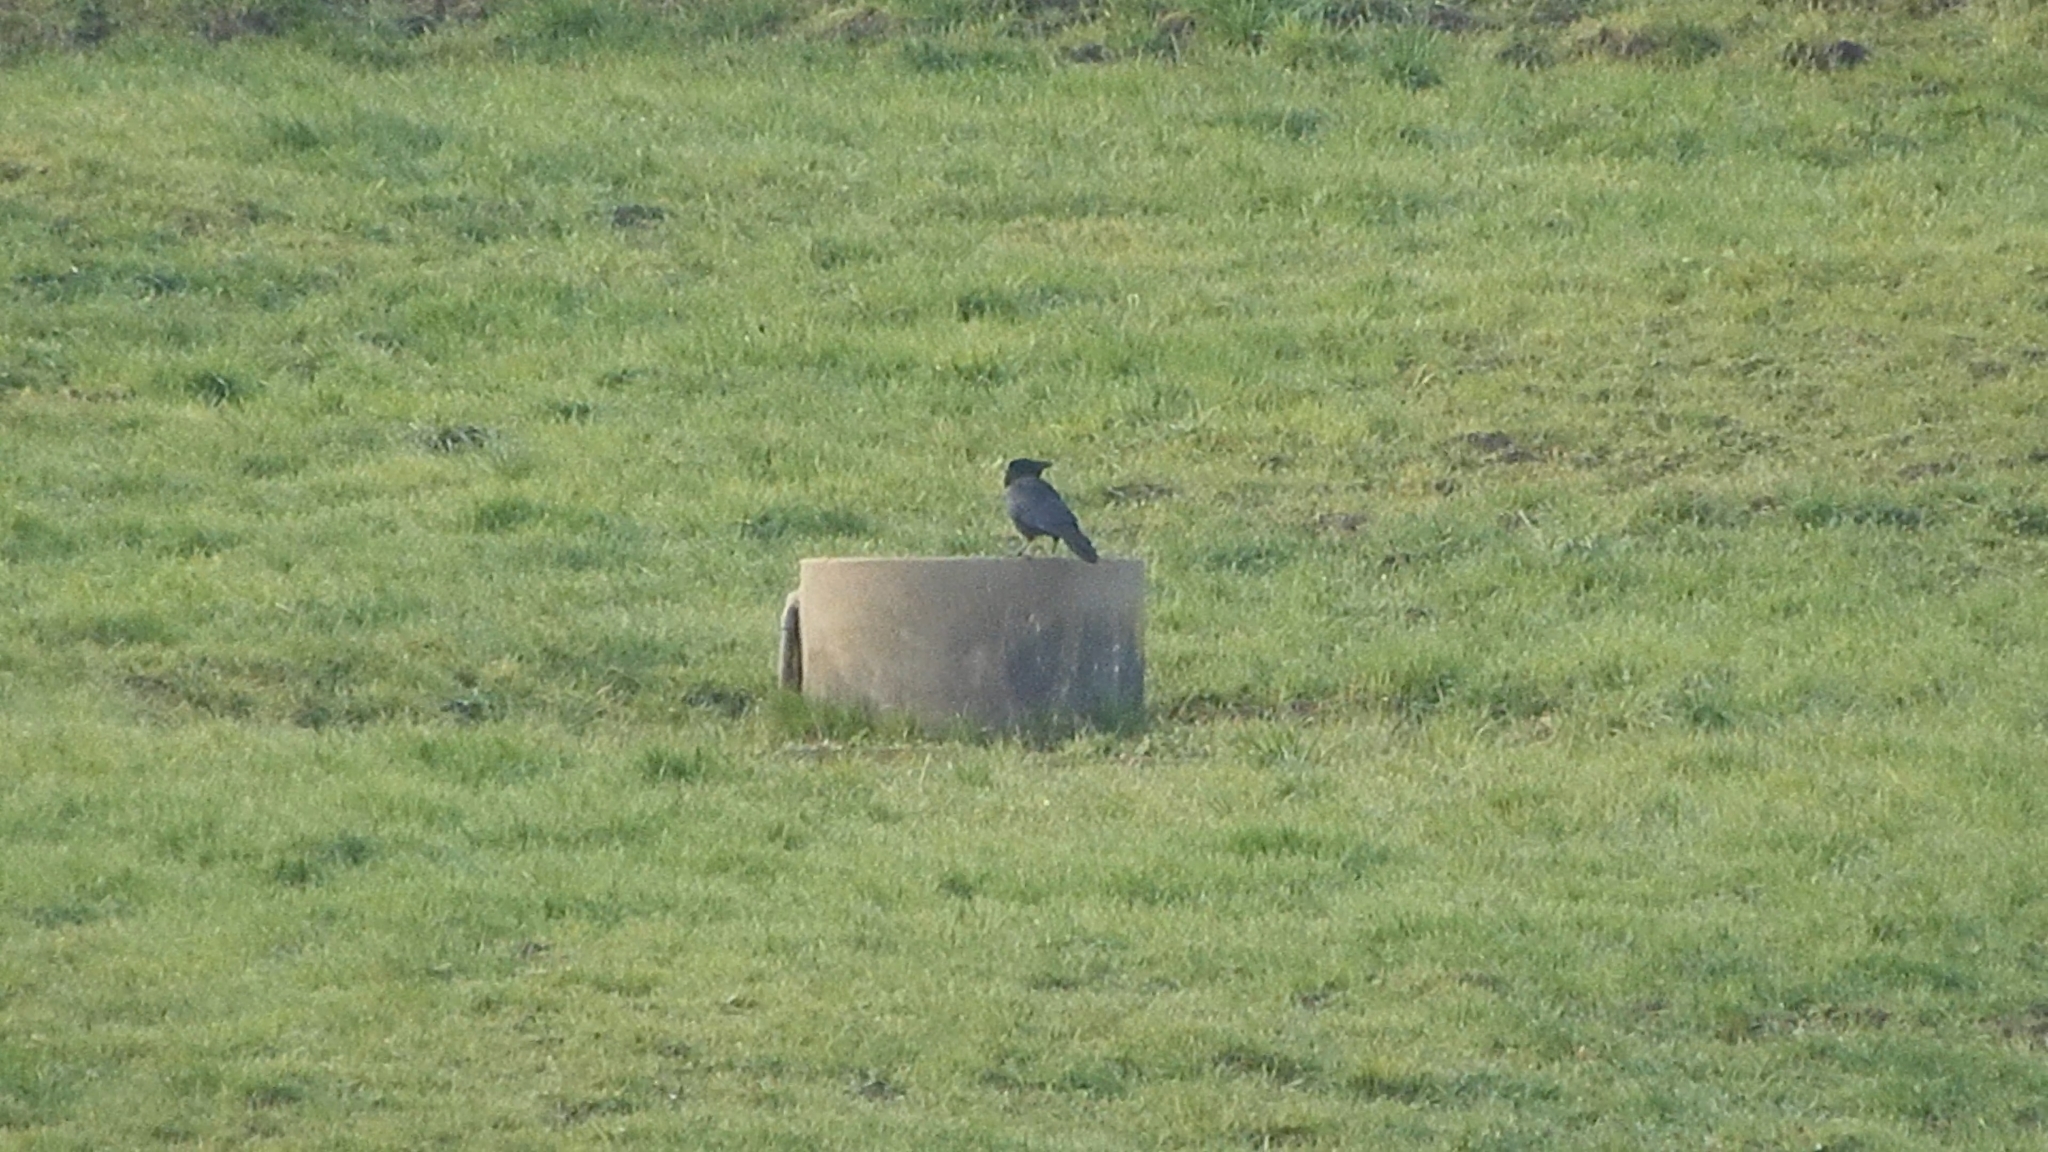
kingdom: Animalia
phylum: Chordata
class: Aves
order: Passeriformes
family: Corvidae
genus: Corvus
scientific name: Corvus corone
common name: Carrion crow
